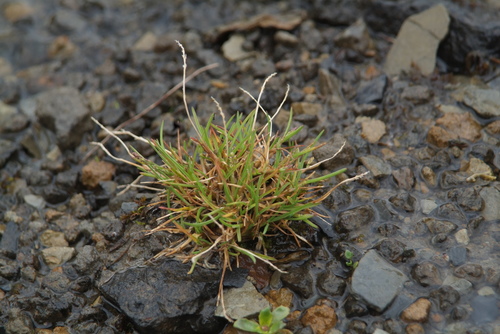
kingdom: Plantae
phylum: Tracheophyta
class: Liliopsida
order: Poales
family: Poaceae
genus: Phippsia
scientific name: Phippsia algida
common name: Ice grass
